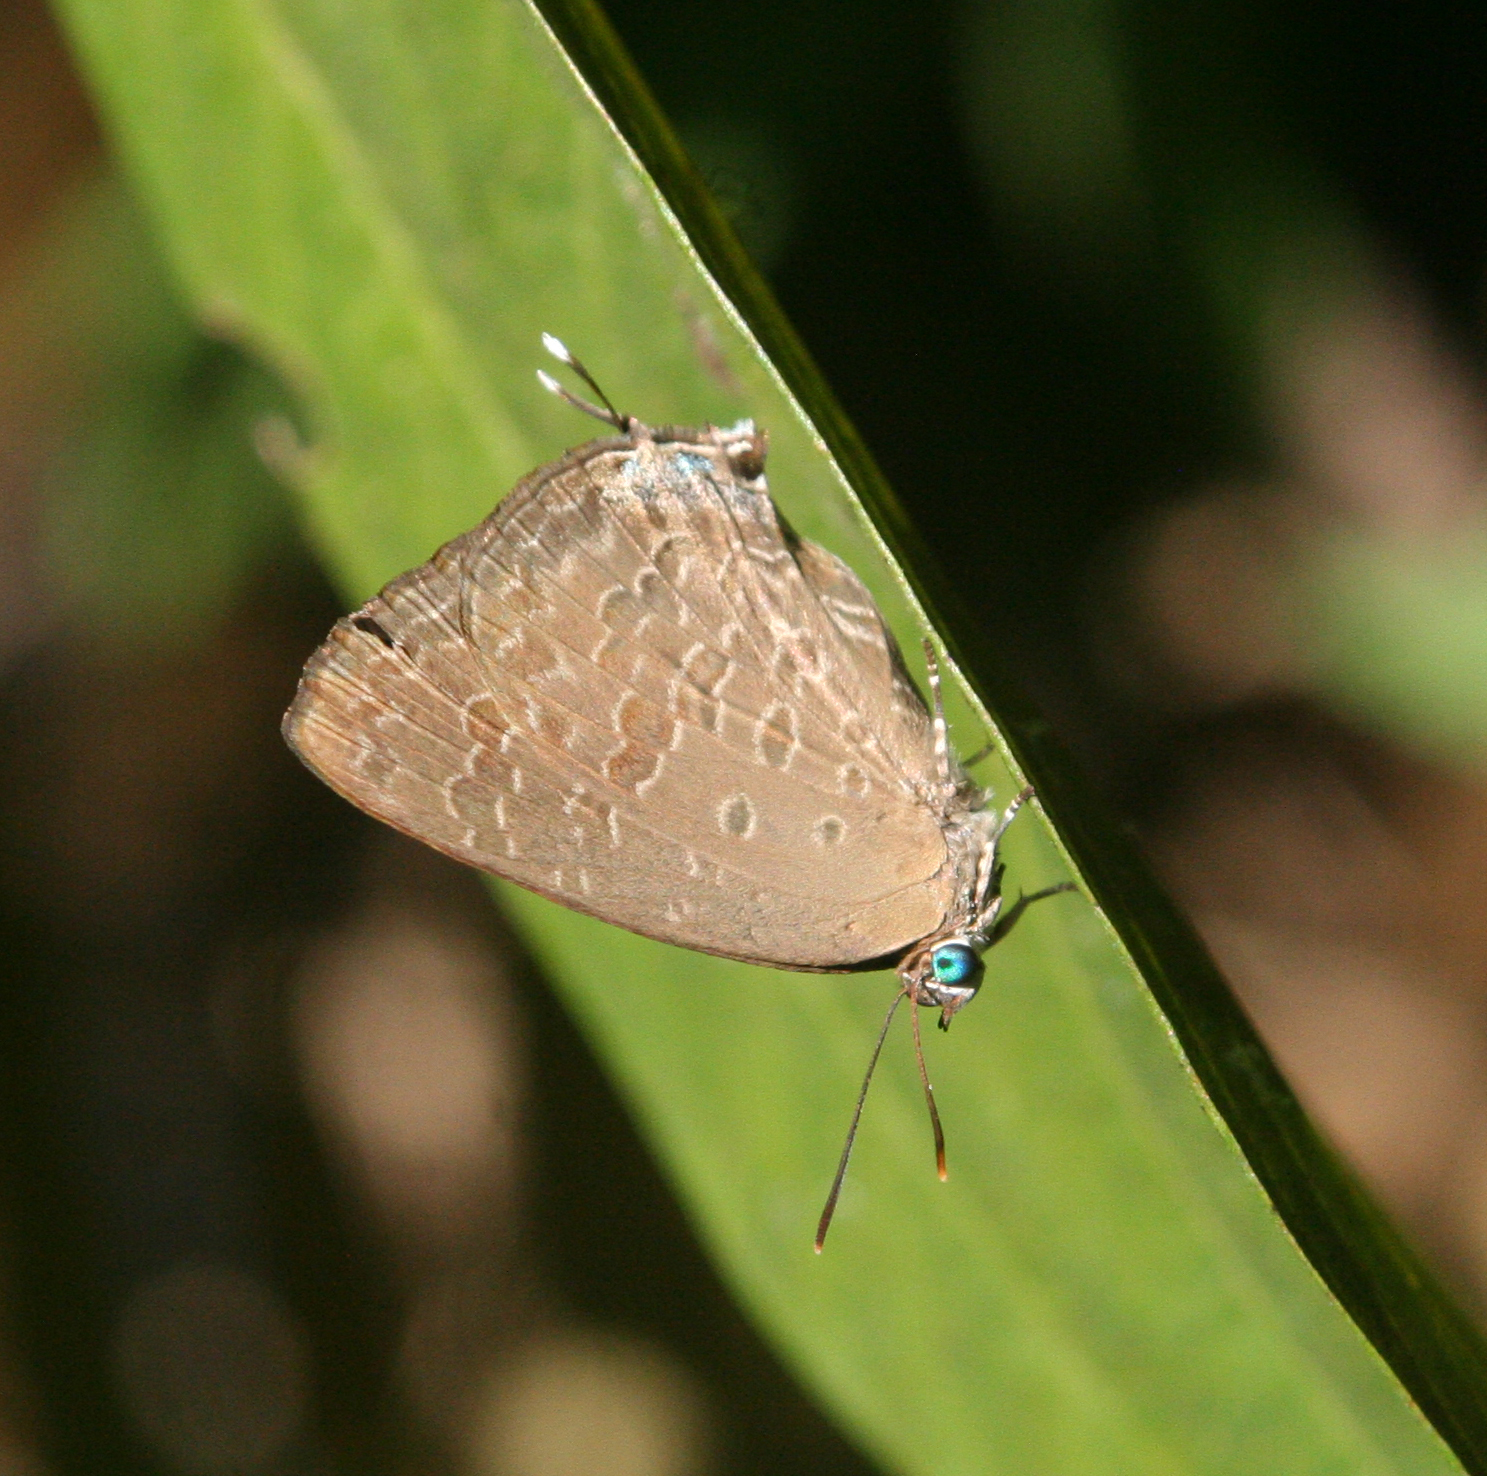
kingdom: Animalia
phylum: Arthropoda
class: Insecta
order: Lepidoptera
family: Lycaenidae
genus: Arhopala
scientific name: Arhopala elopura
